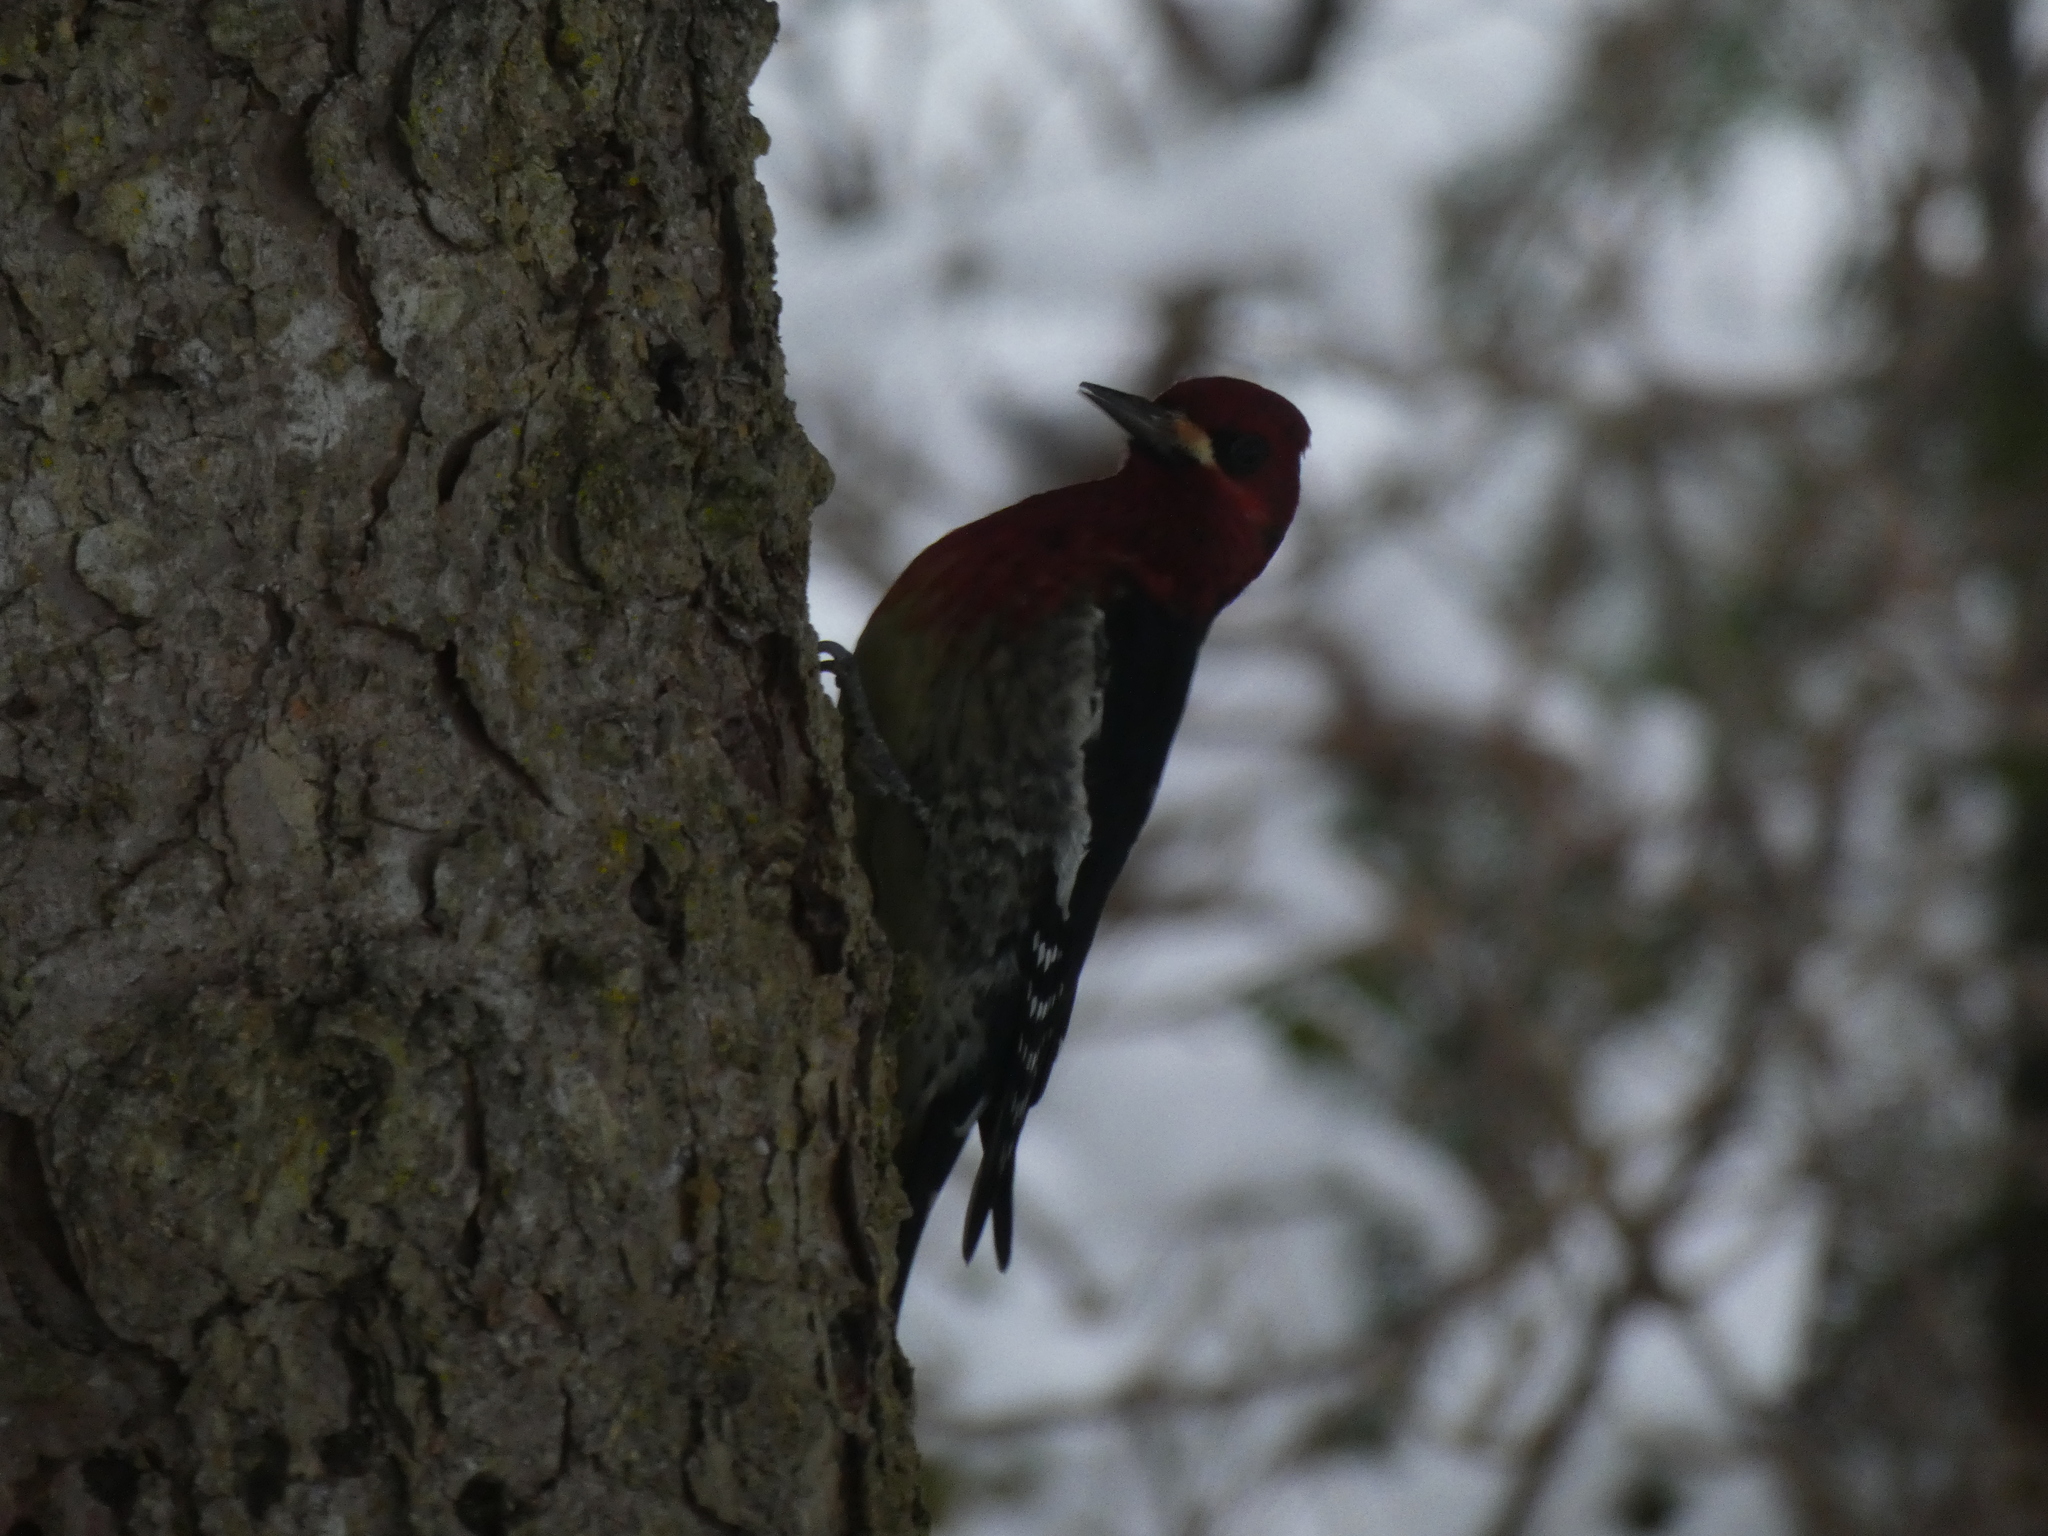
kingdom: Animalia
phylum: Chordata
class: Aves
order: Piciformes
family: Picidae
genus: Sphyrapicus
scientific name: Sphyrapicus ruber
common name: Red-breasted sapsucker
